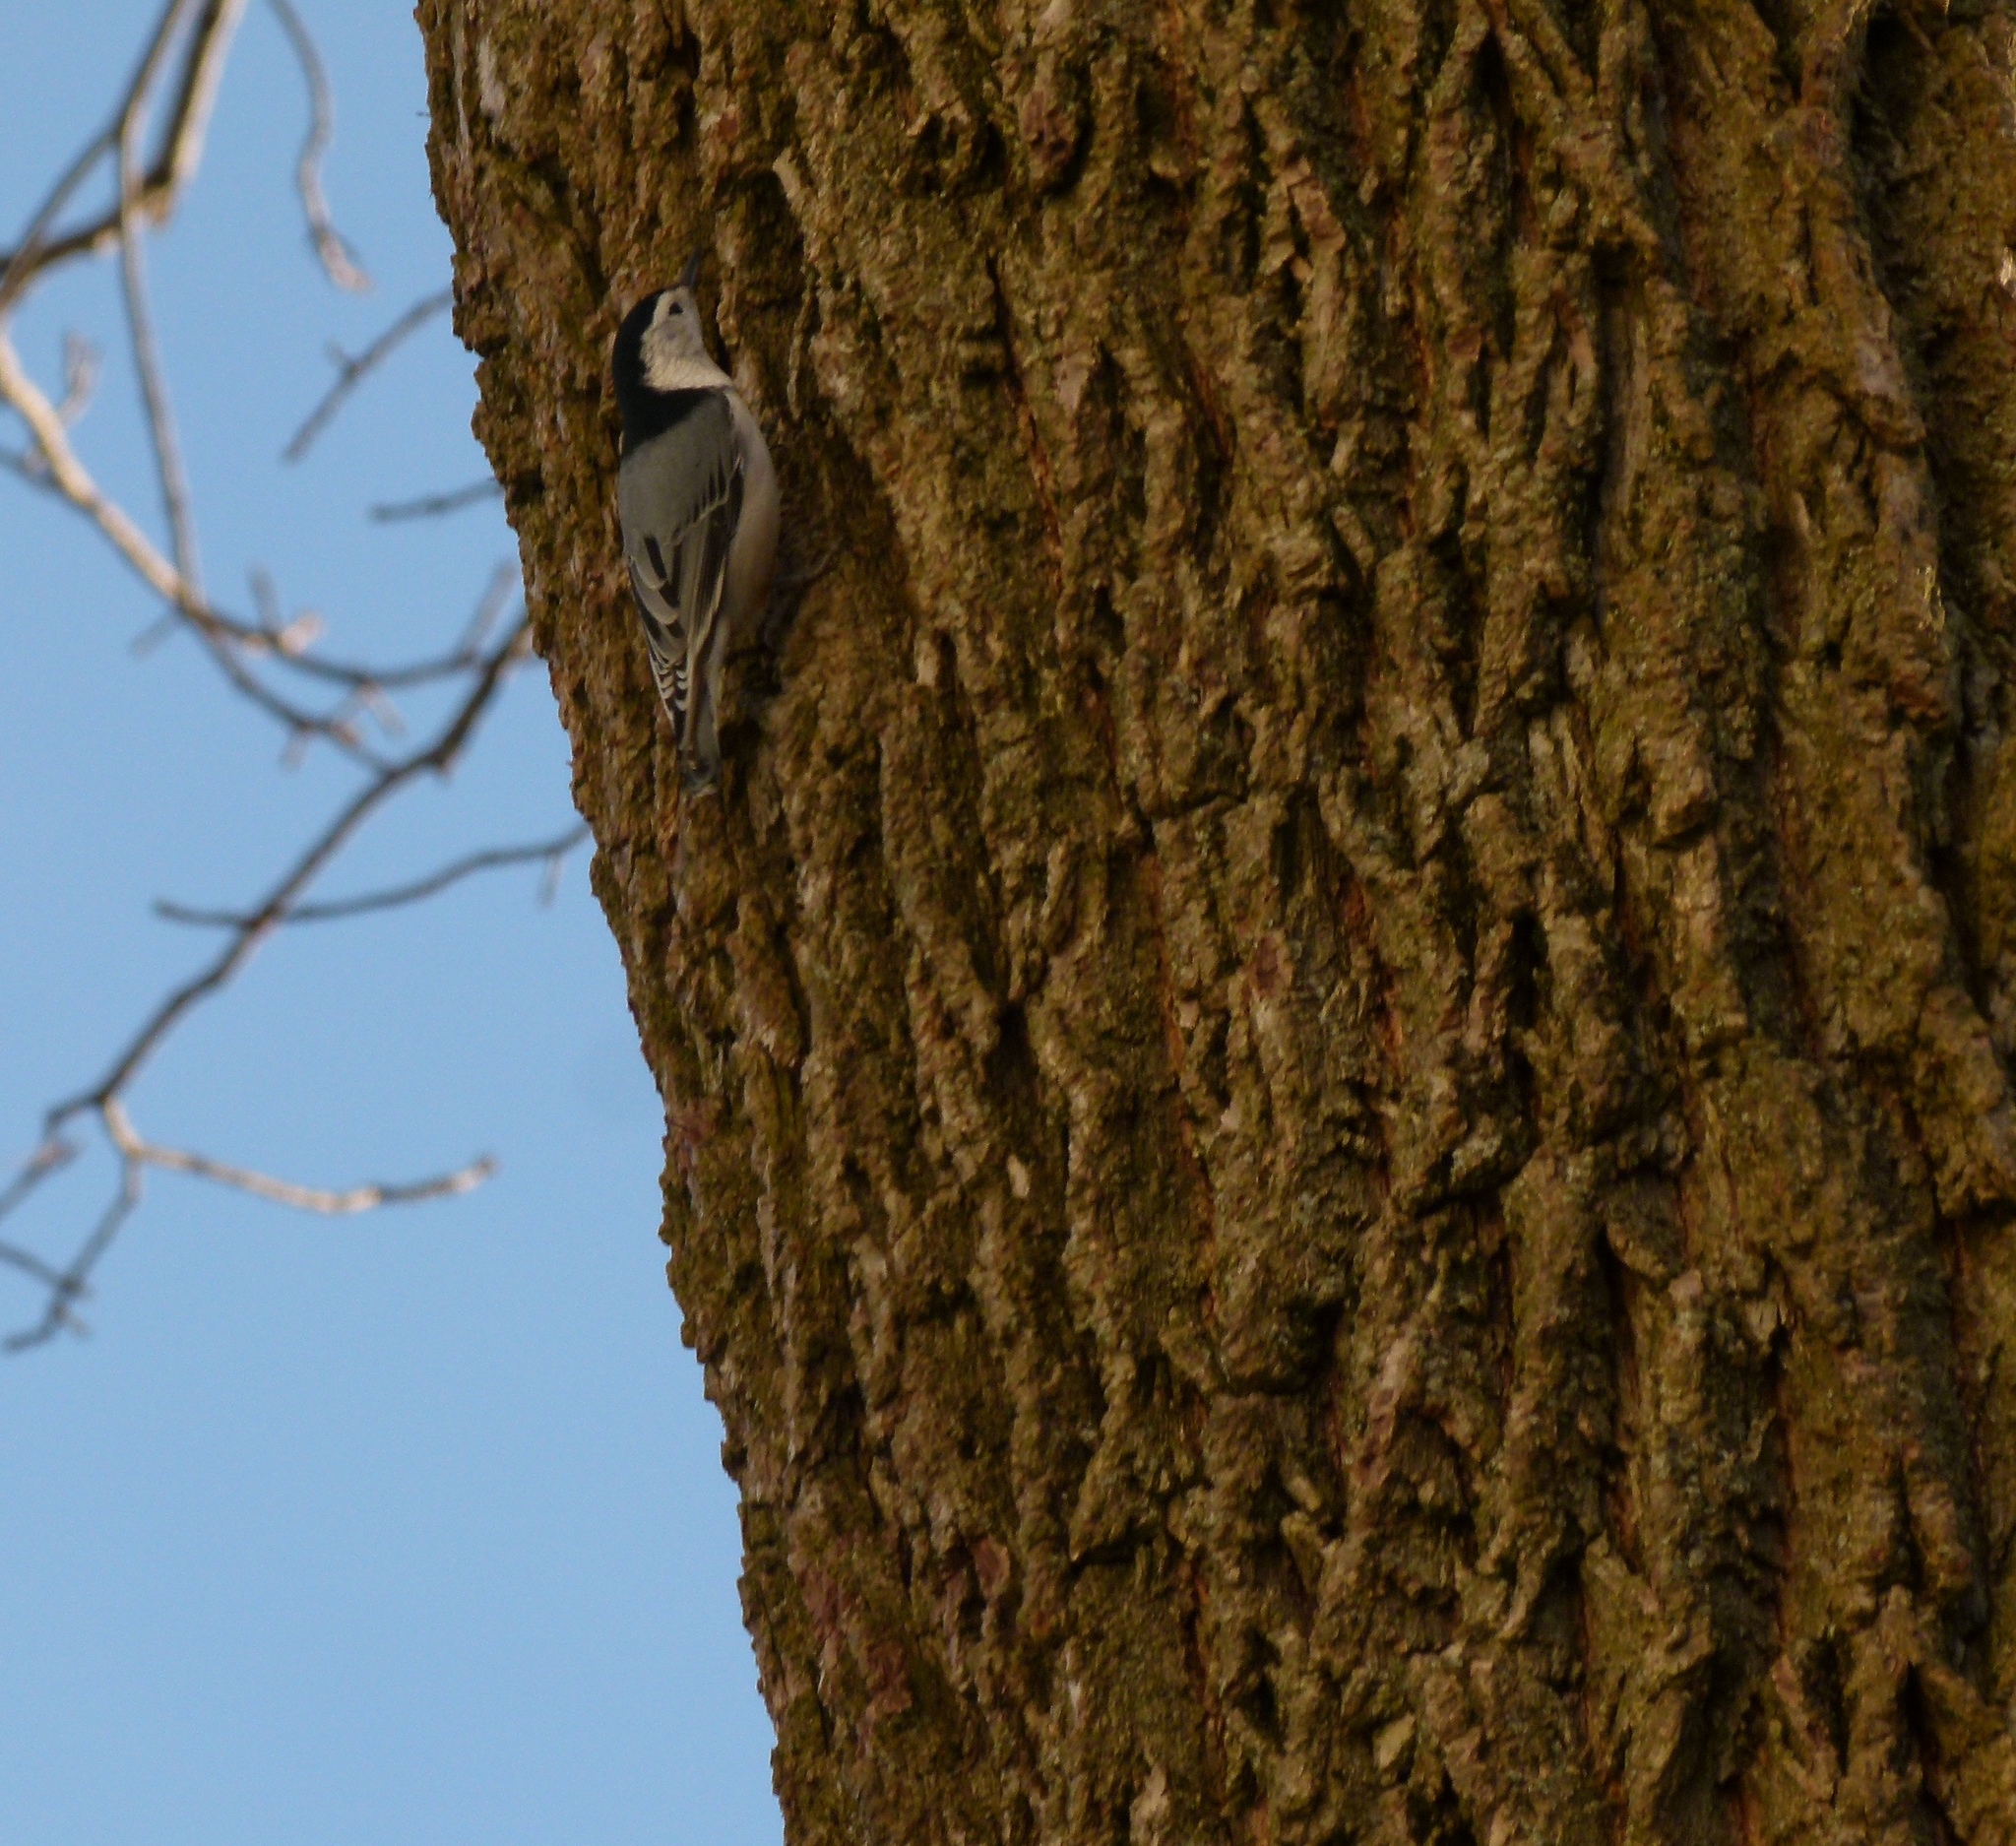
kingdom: Animalia
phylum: Chordata
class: Aves
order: Passeriformes
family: Sittidae
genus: Sitta
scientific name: Sitta carolinensis
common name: White-breasted nuthatch
